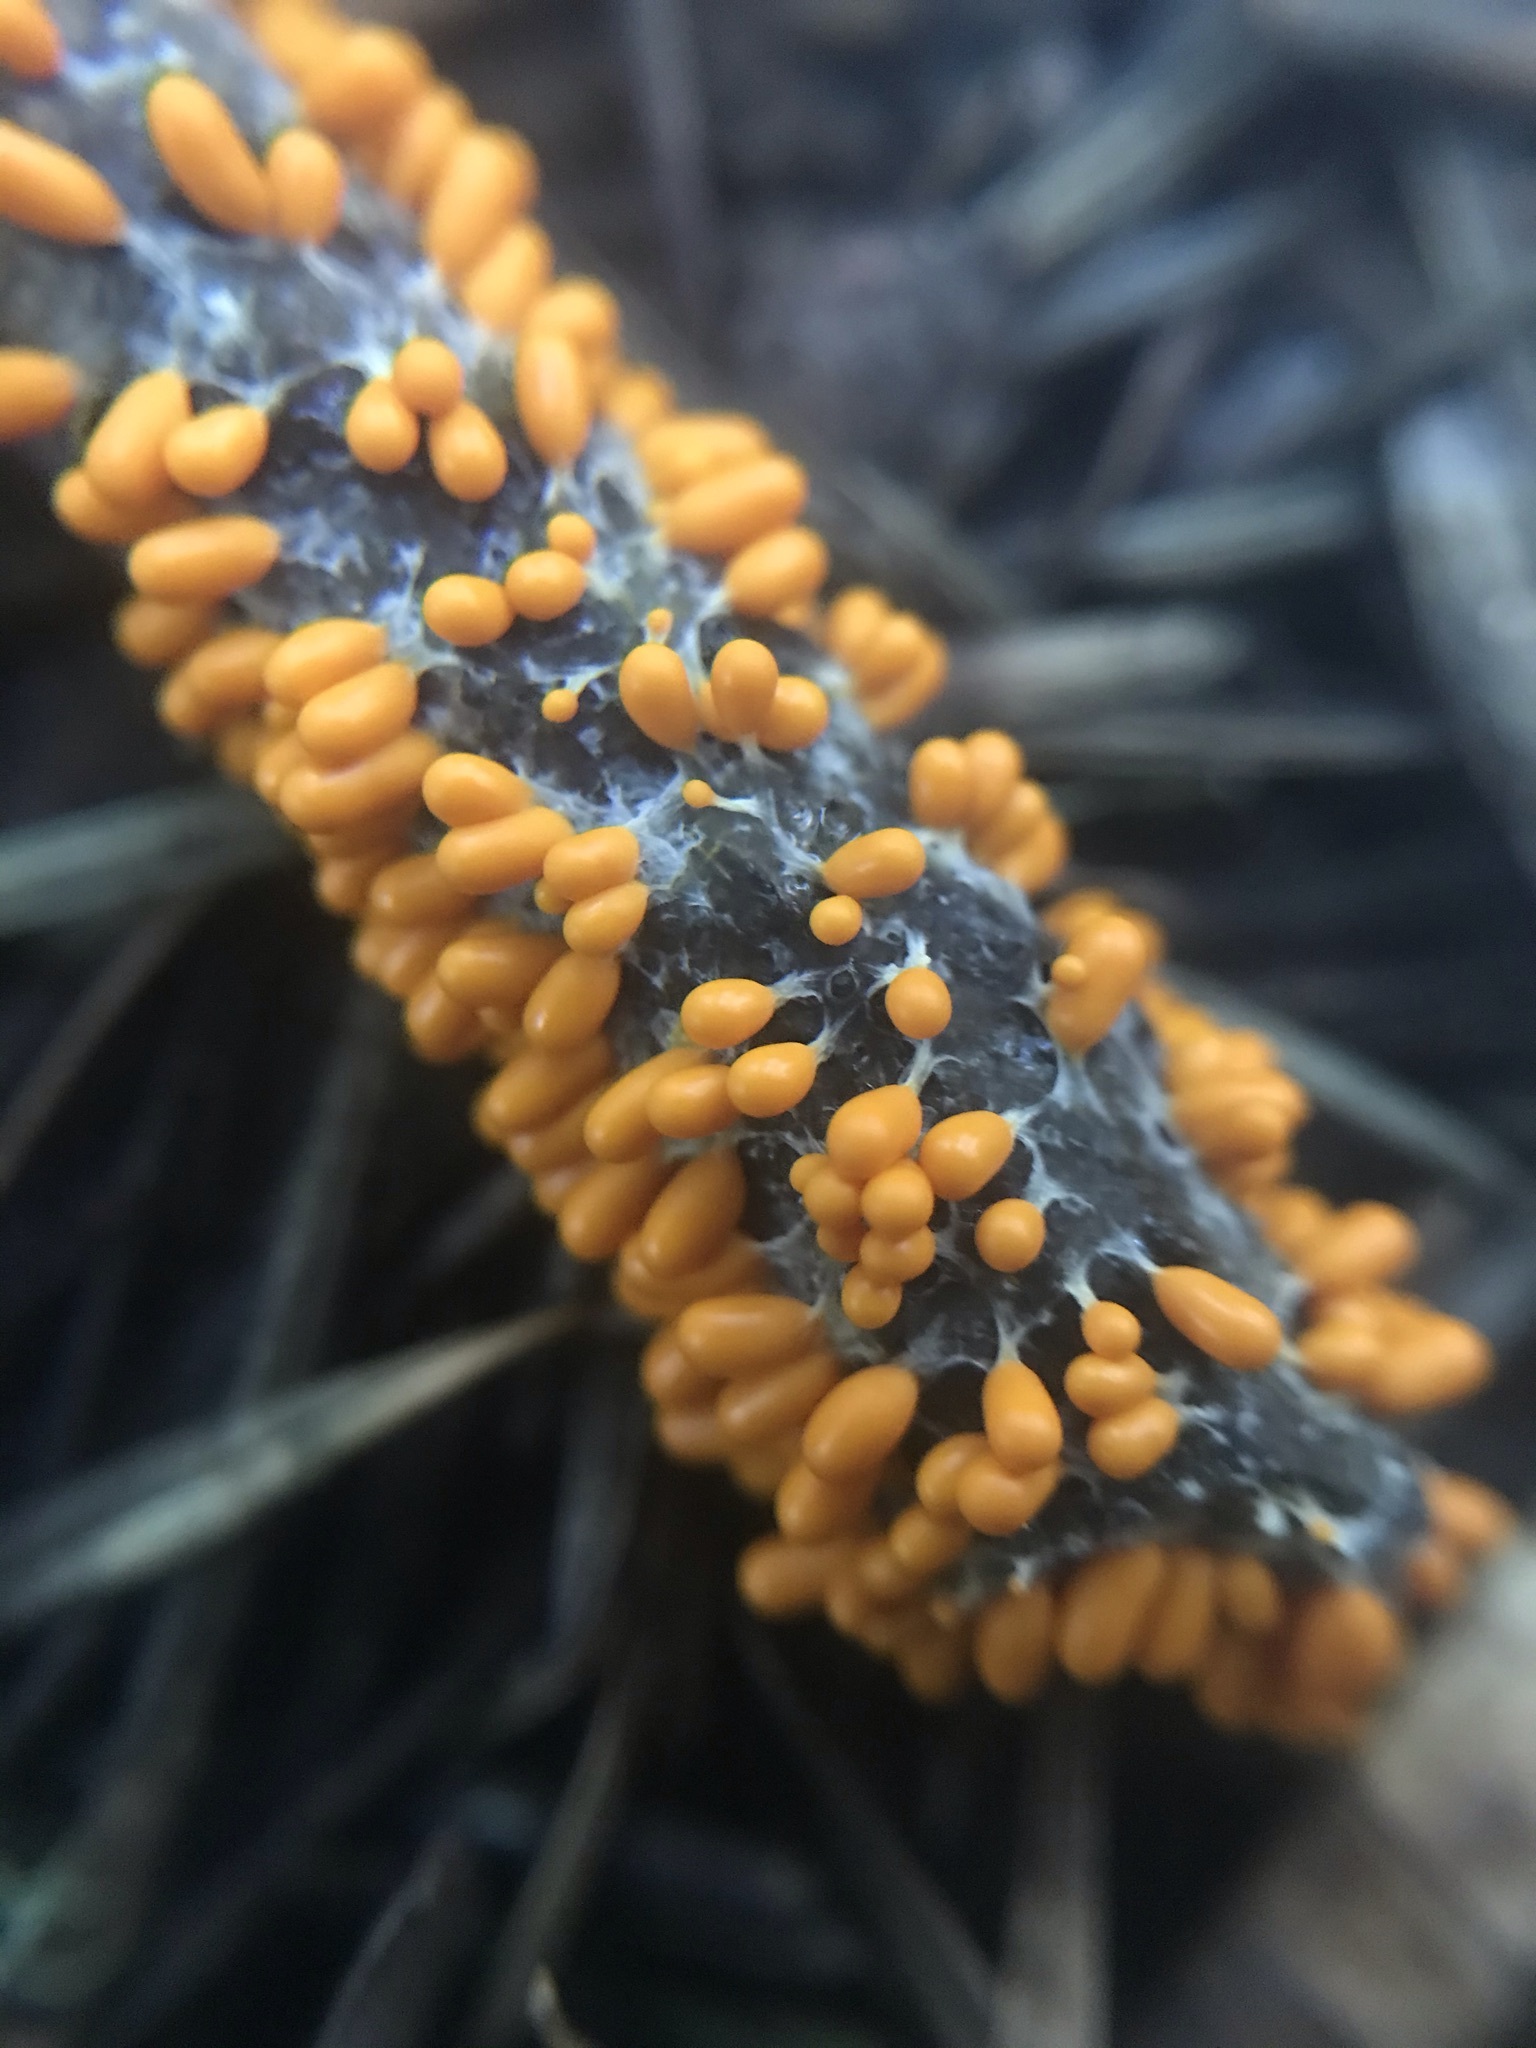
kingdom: Protozoa
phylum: Mycetozoa
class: Myxomycetes
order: Physarales
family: Physaraceae
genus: Leocarpus
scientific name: Leocarpus fragilis
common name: Insect-egg slime
